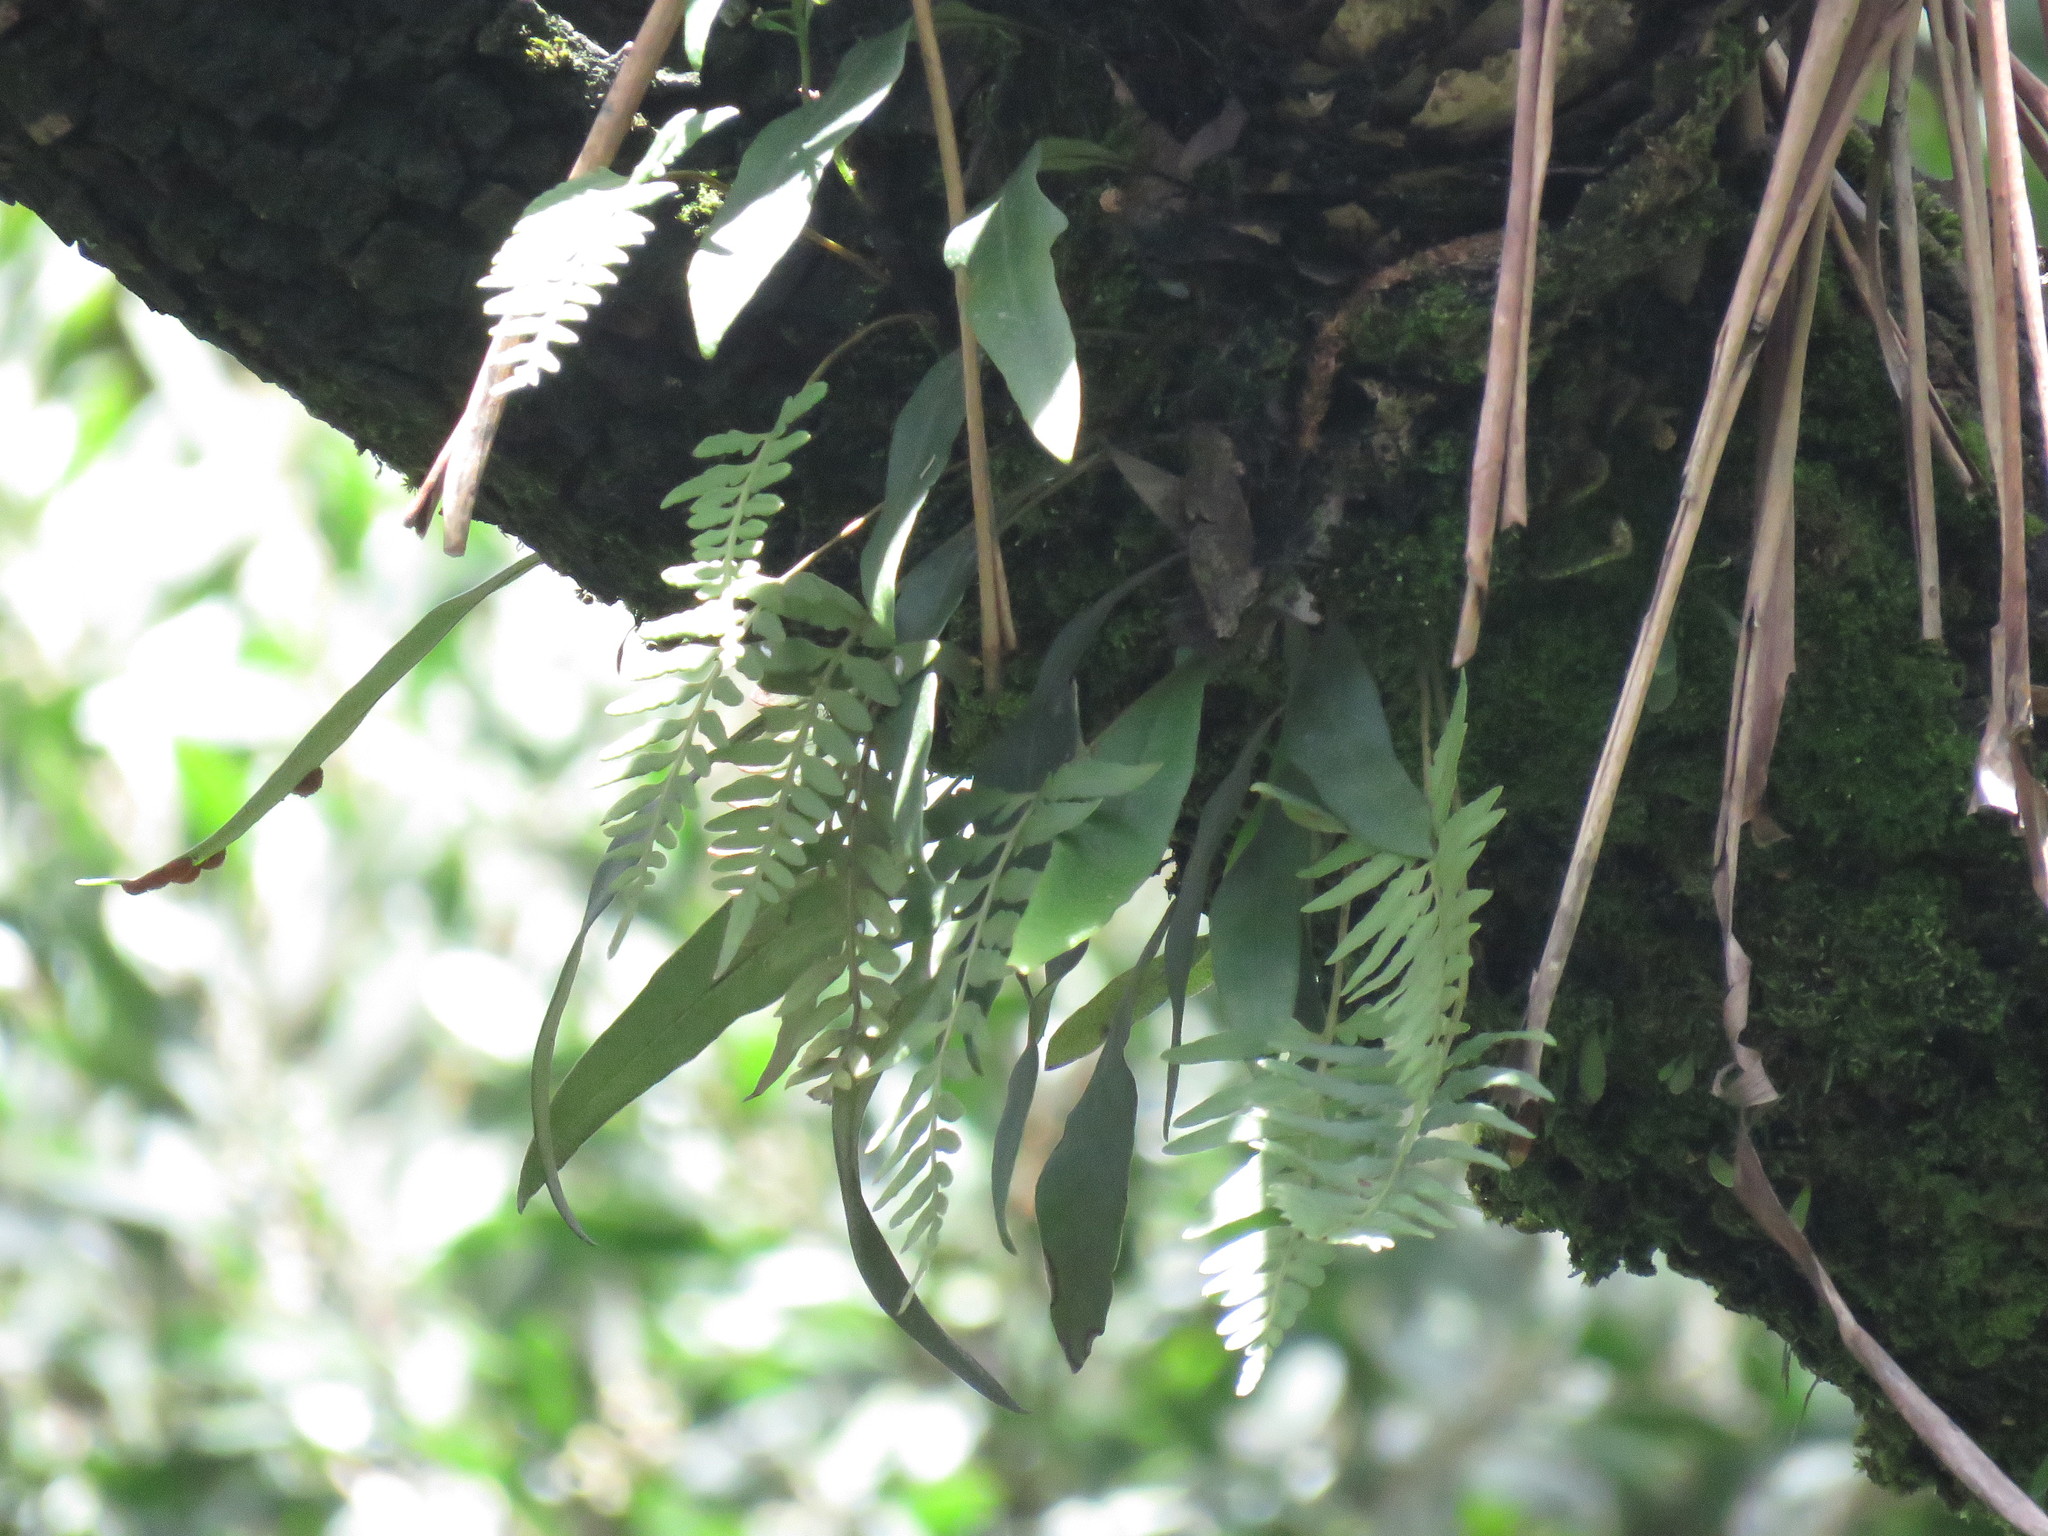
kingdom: Plantae
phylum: Tracheophyta
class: Polypodiopsida
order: Polypodiales
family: Polypodiaceae
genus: Pleopeltis
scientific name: Pleopeltis macrocarpa
